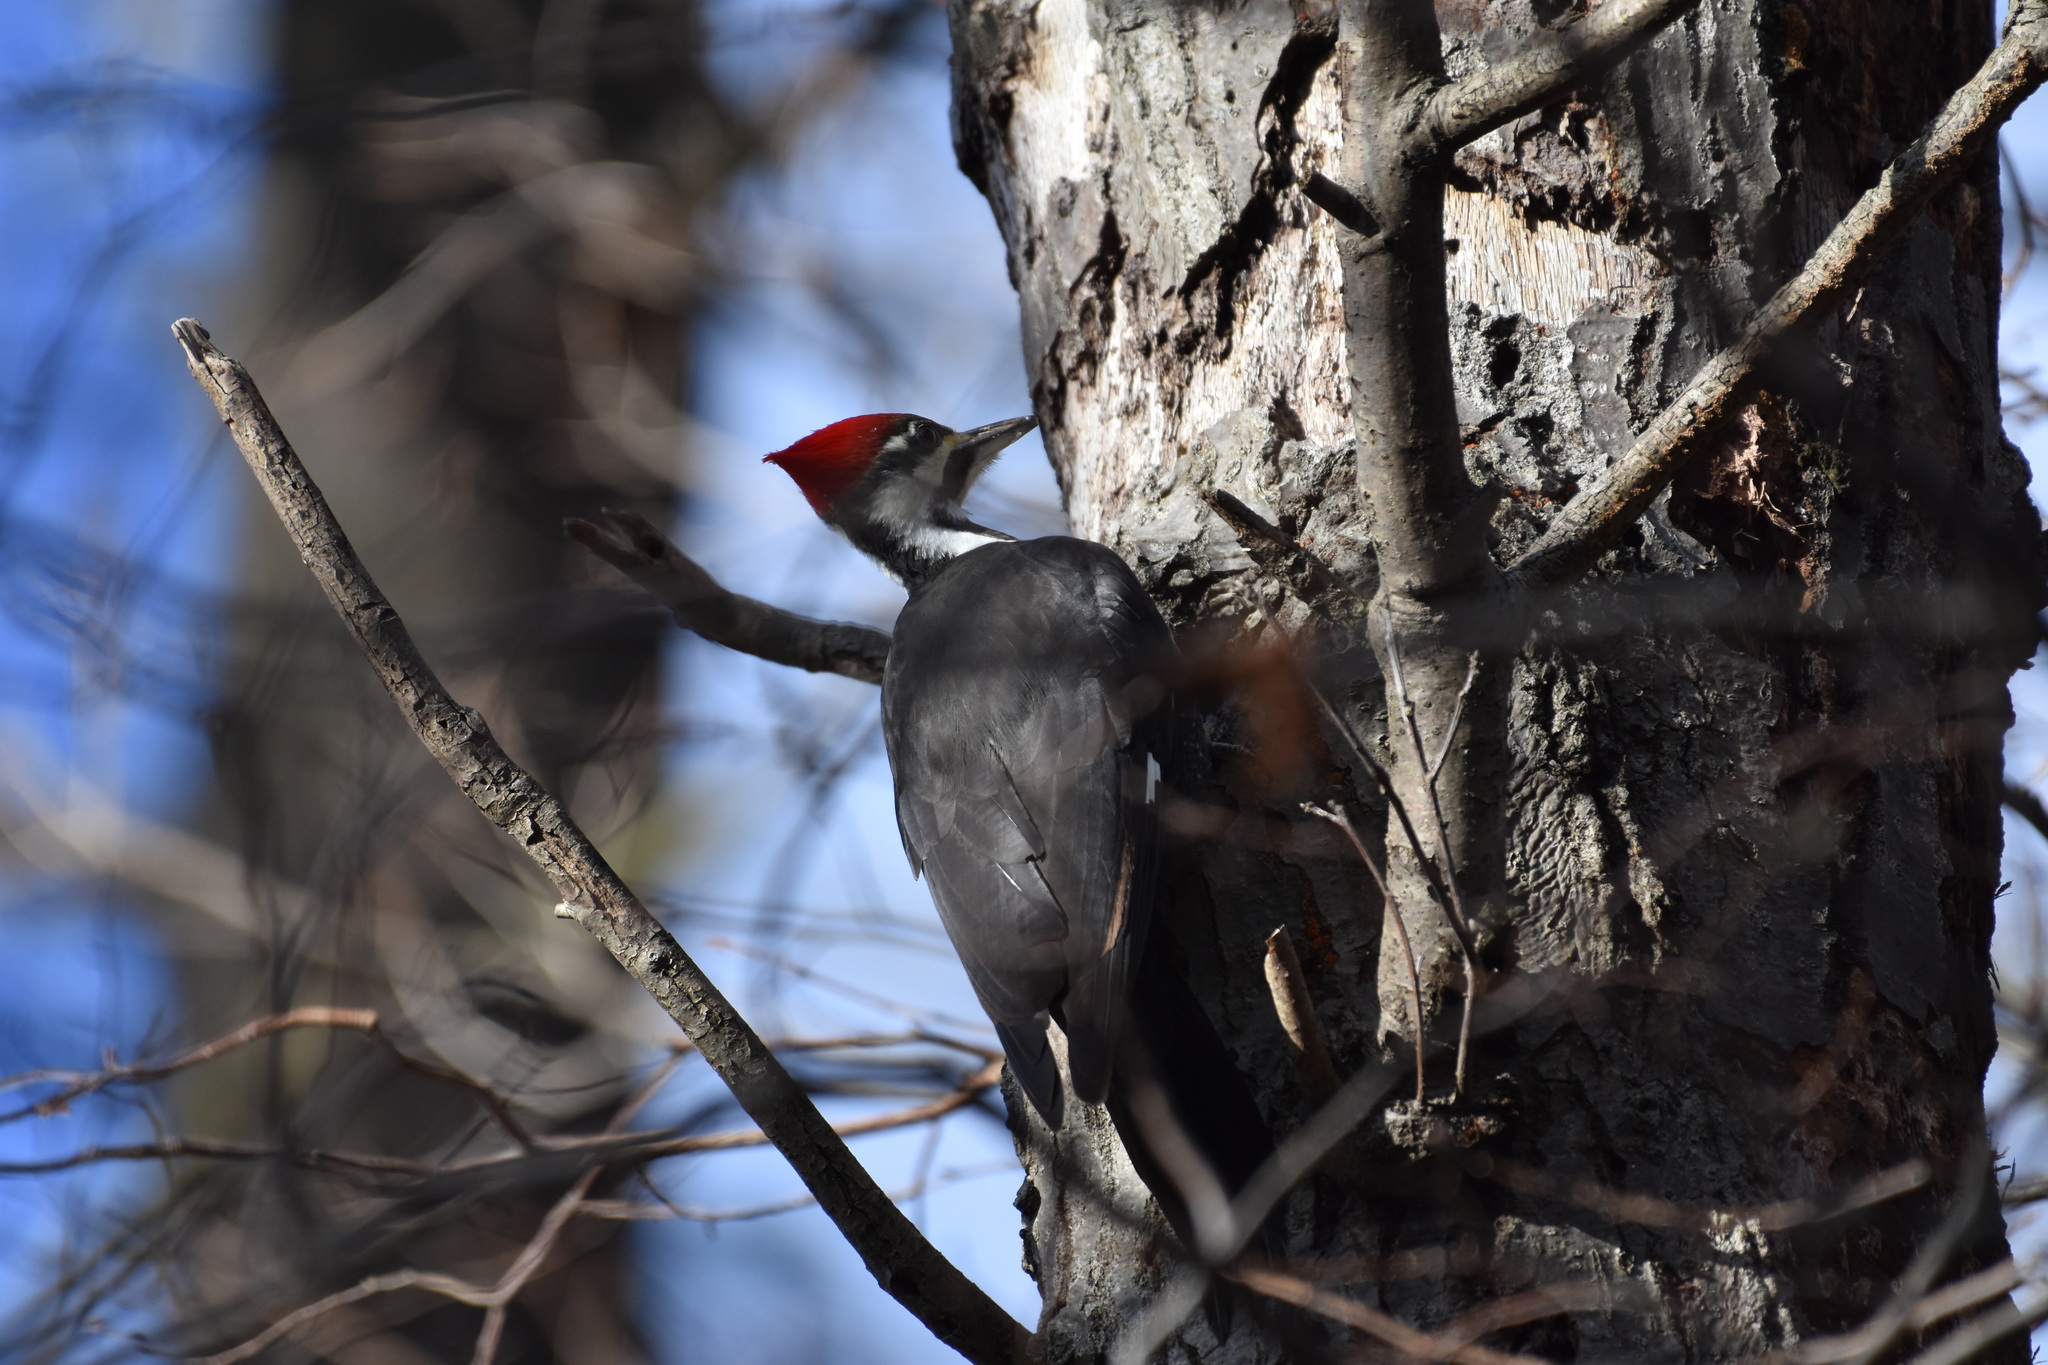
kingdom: Animalia
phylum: Chordata
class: Aves
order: Piciformes
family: Picidae
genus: Dryocopus
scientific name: Dryocopus pileatus
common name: Pileated woodpecker
